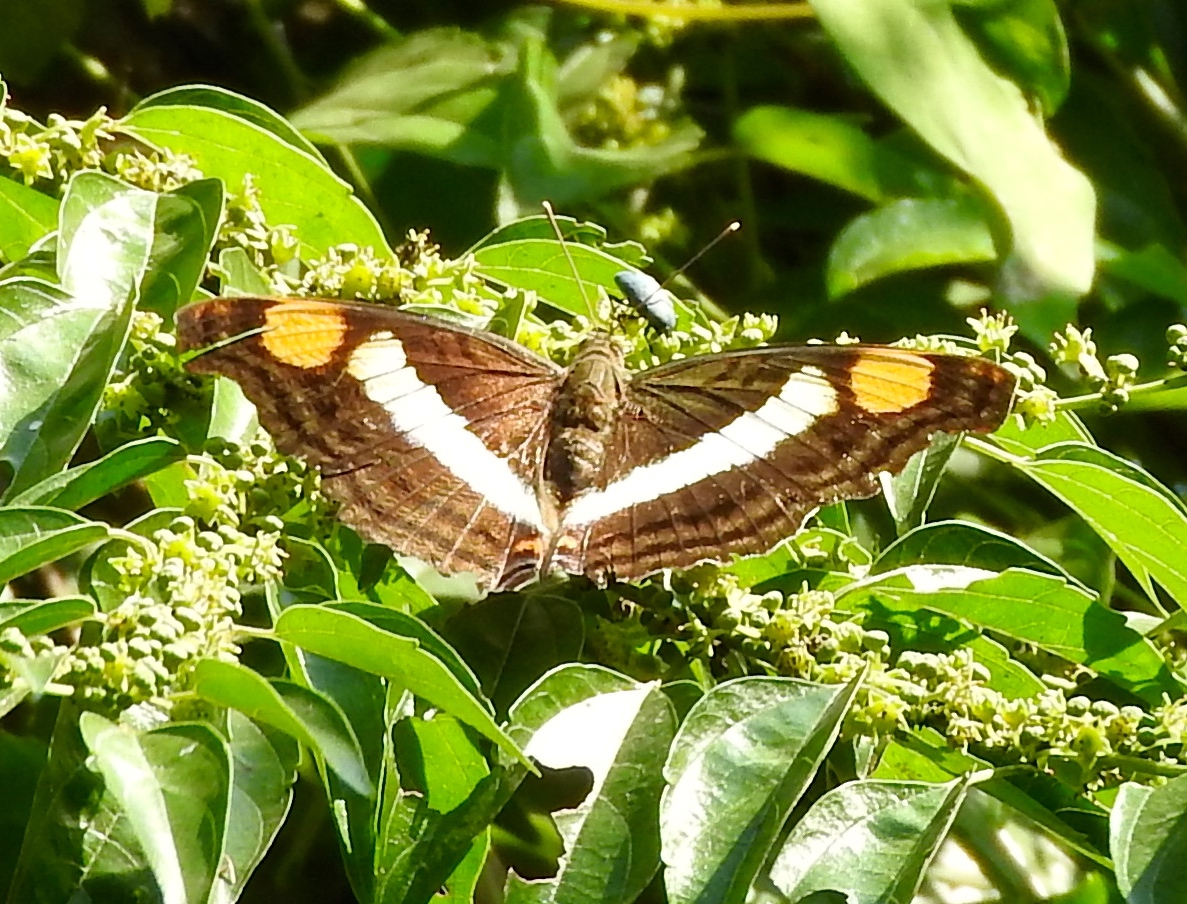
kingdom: Animalia
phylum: Arthropoda
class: Insecta
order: Lepidoptera
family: Nymphalidae
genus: Doxocopa
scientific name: Doxocopa laure
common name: Silver emperor
